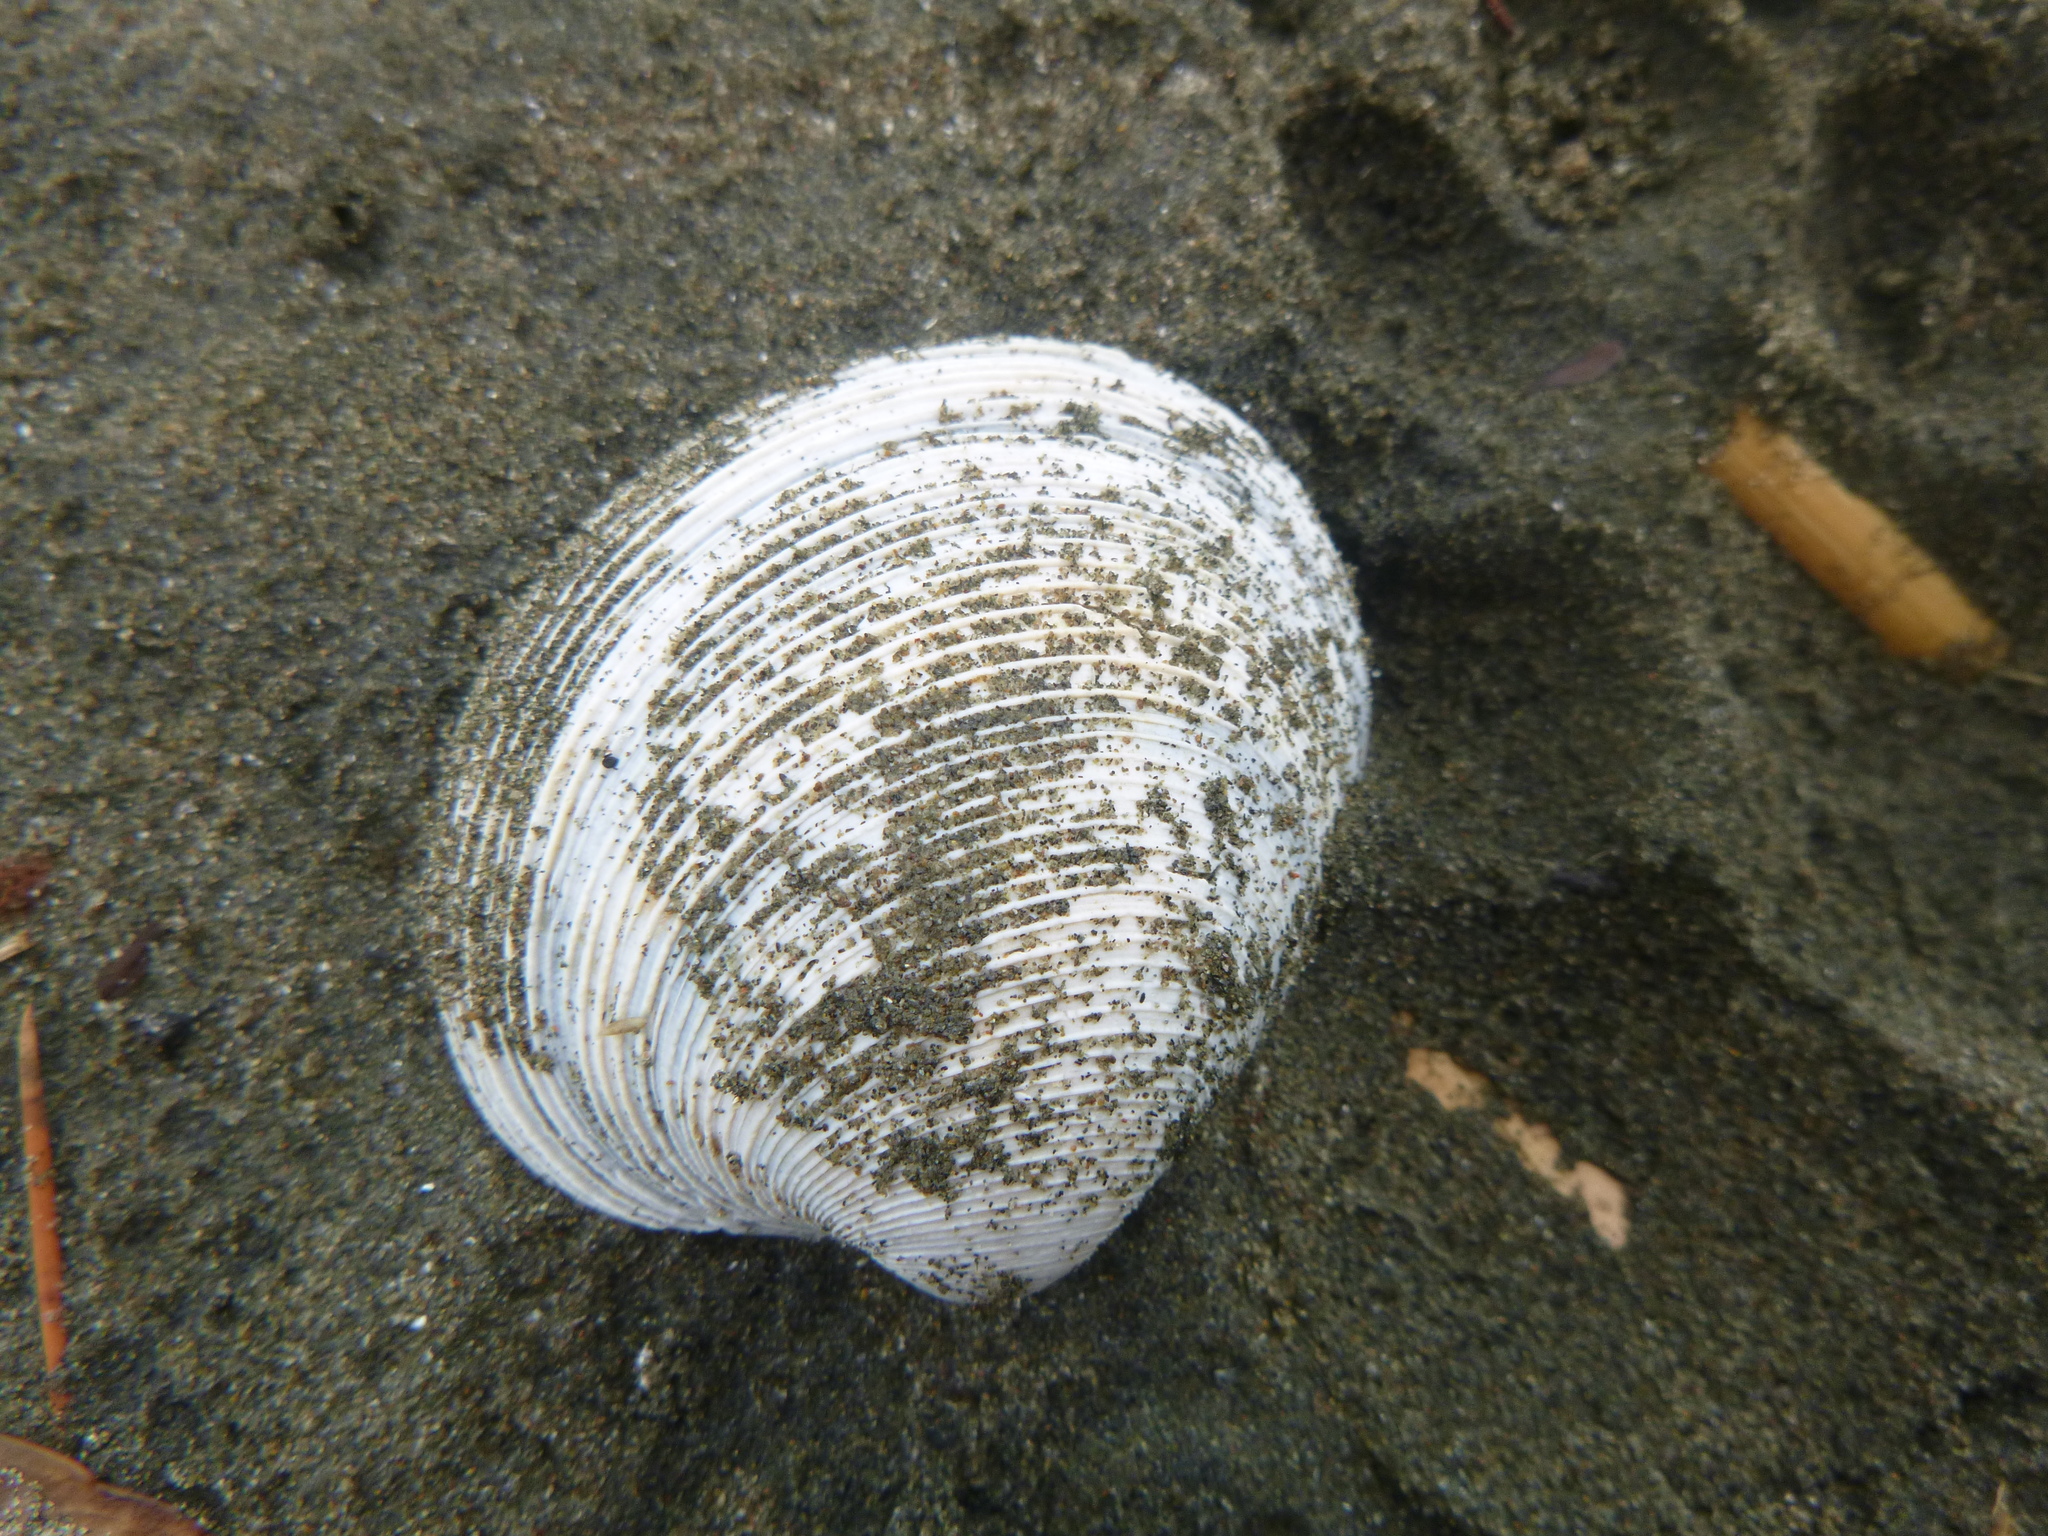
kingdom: Animalia
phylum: Mollusca
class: Bivalvia
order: Venerida
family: Veneridae
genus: Dosina
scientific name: Dosina mactracea
